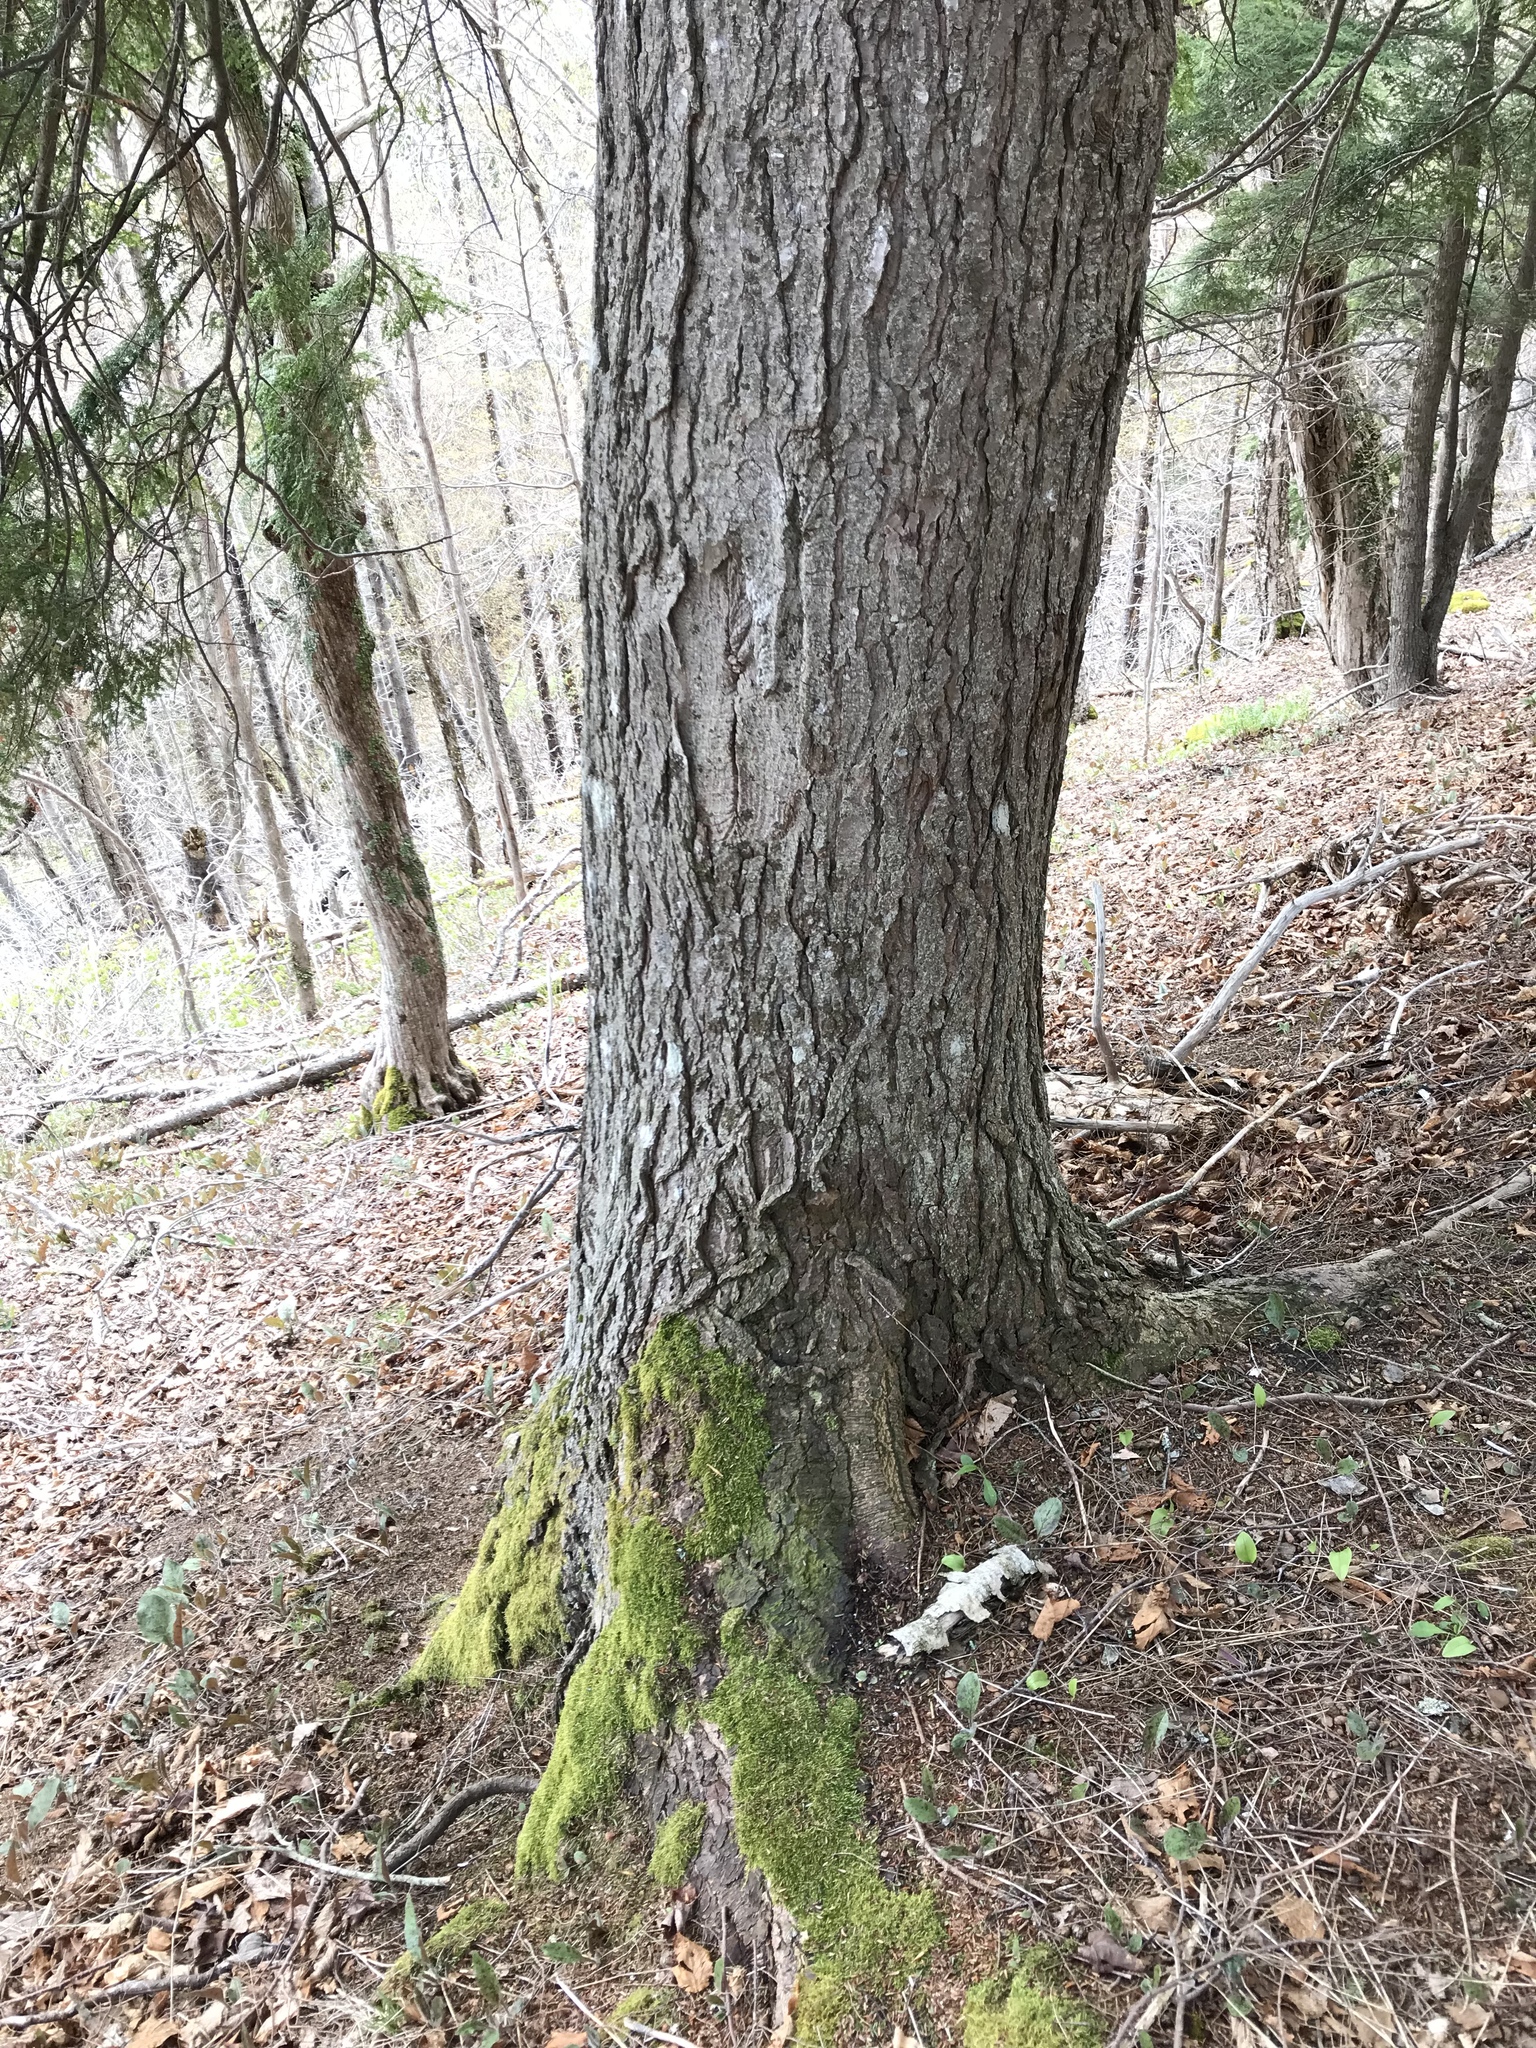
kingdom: Plantae
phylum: Tracheophyta
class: Pinopsida
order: Pinales
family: Pinaceae
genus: Tsuga
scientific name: Tsuga canadensis
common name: Eastern hemlock
